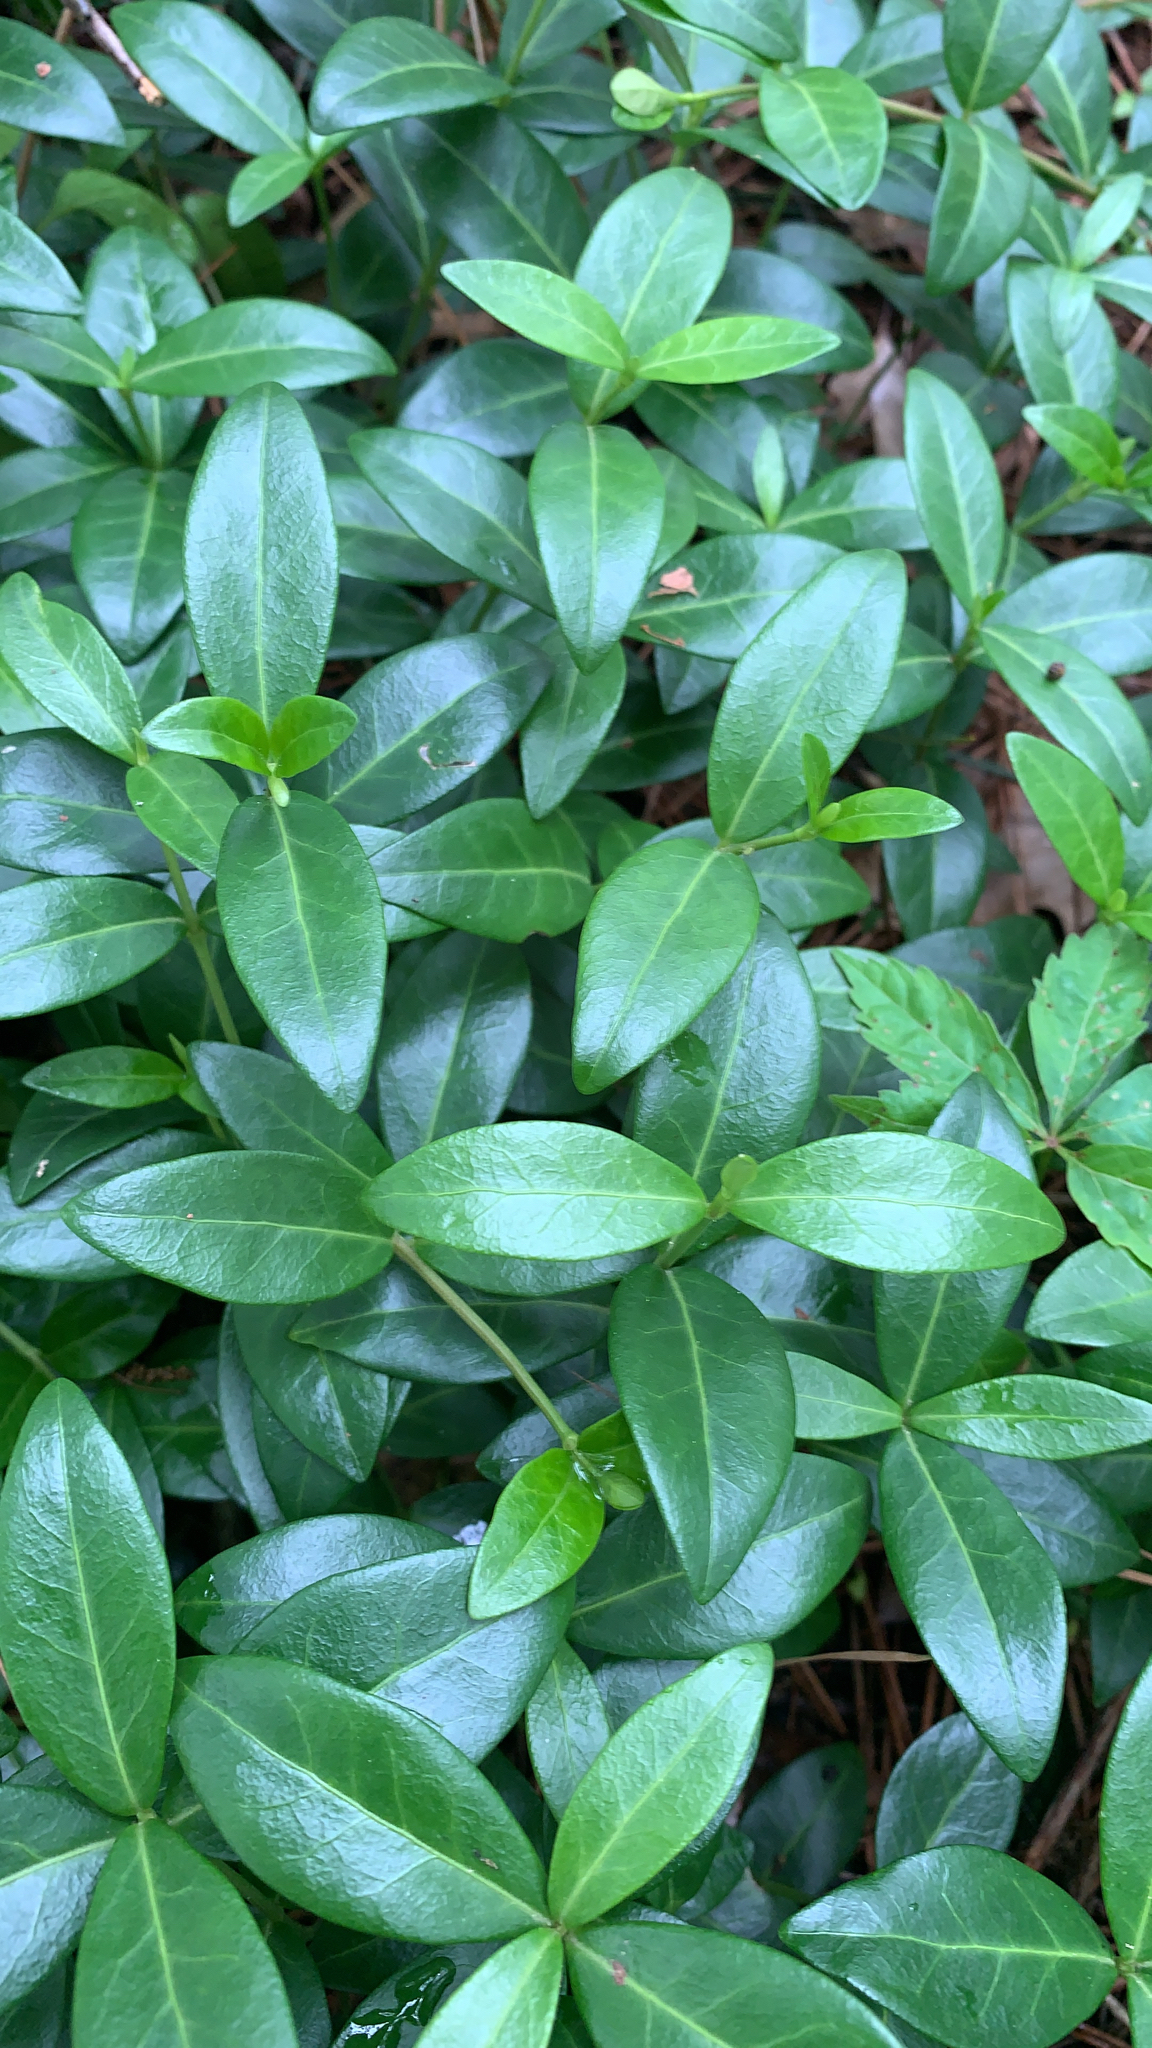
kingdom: Plantae
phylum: Tracheophyta
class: Magnoliopsida
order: Gentianales
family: Apocynaceae
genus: Vinca
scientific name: Vinca minor
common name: Lesser periwinkle
